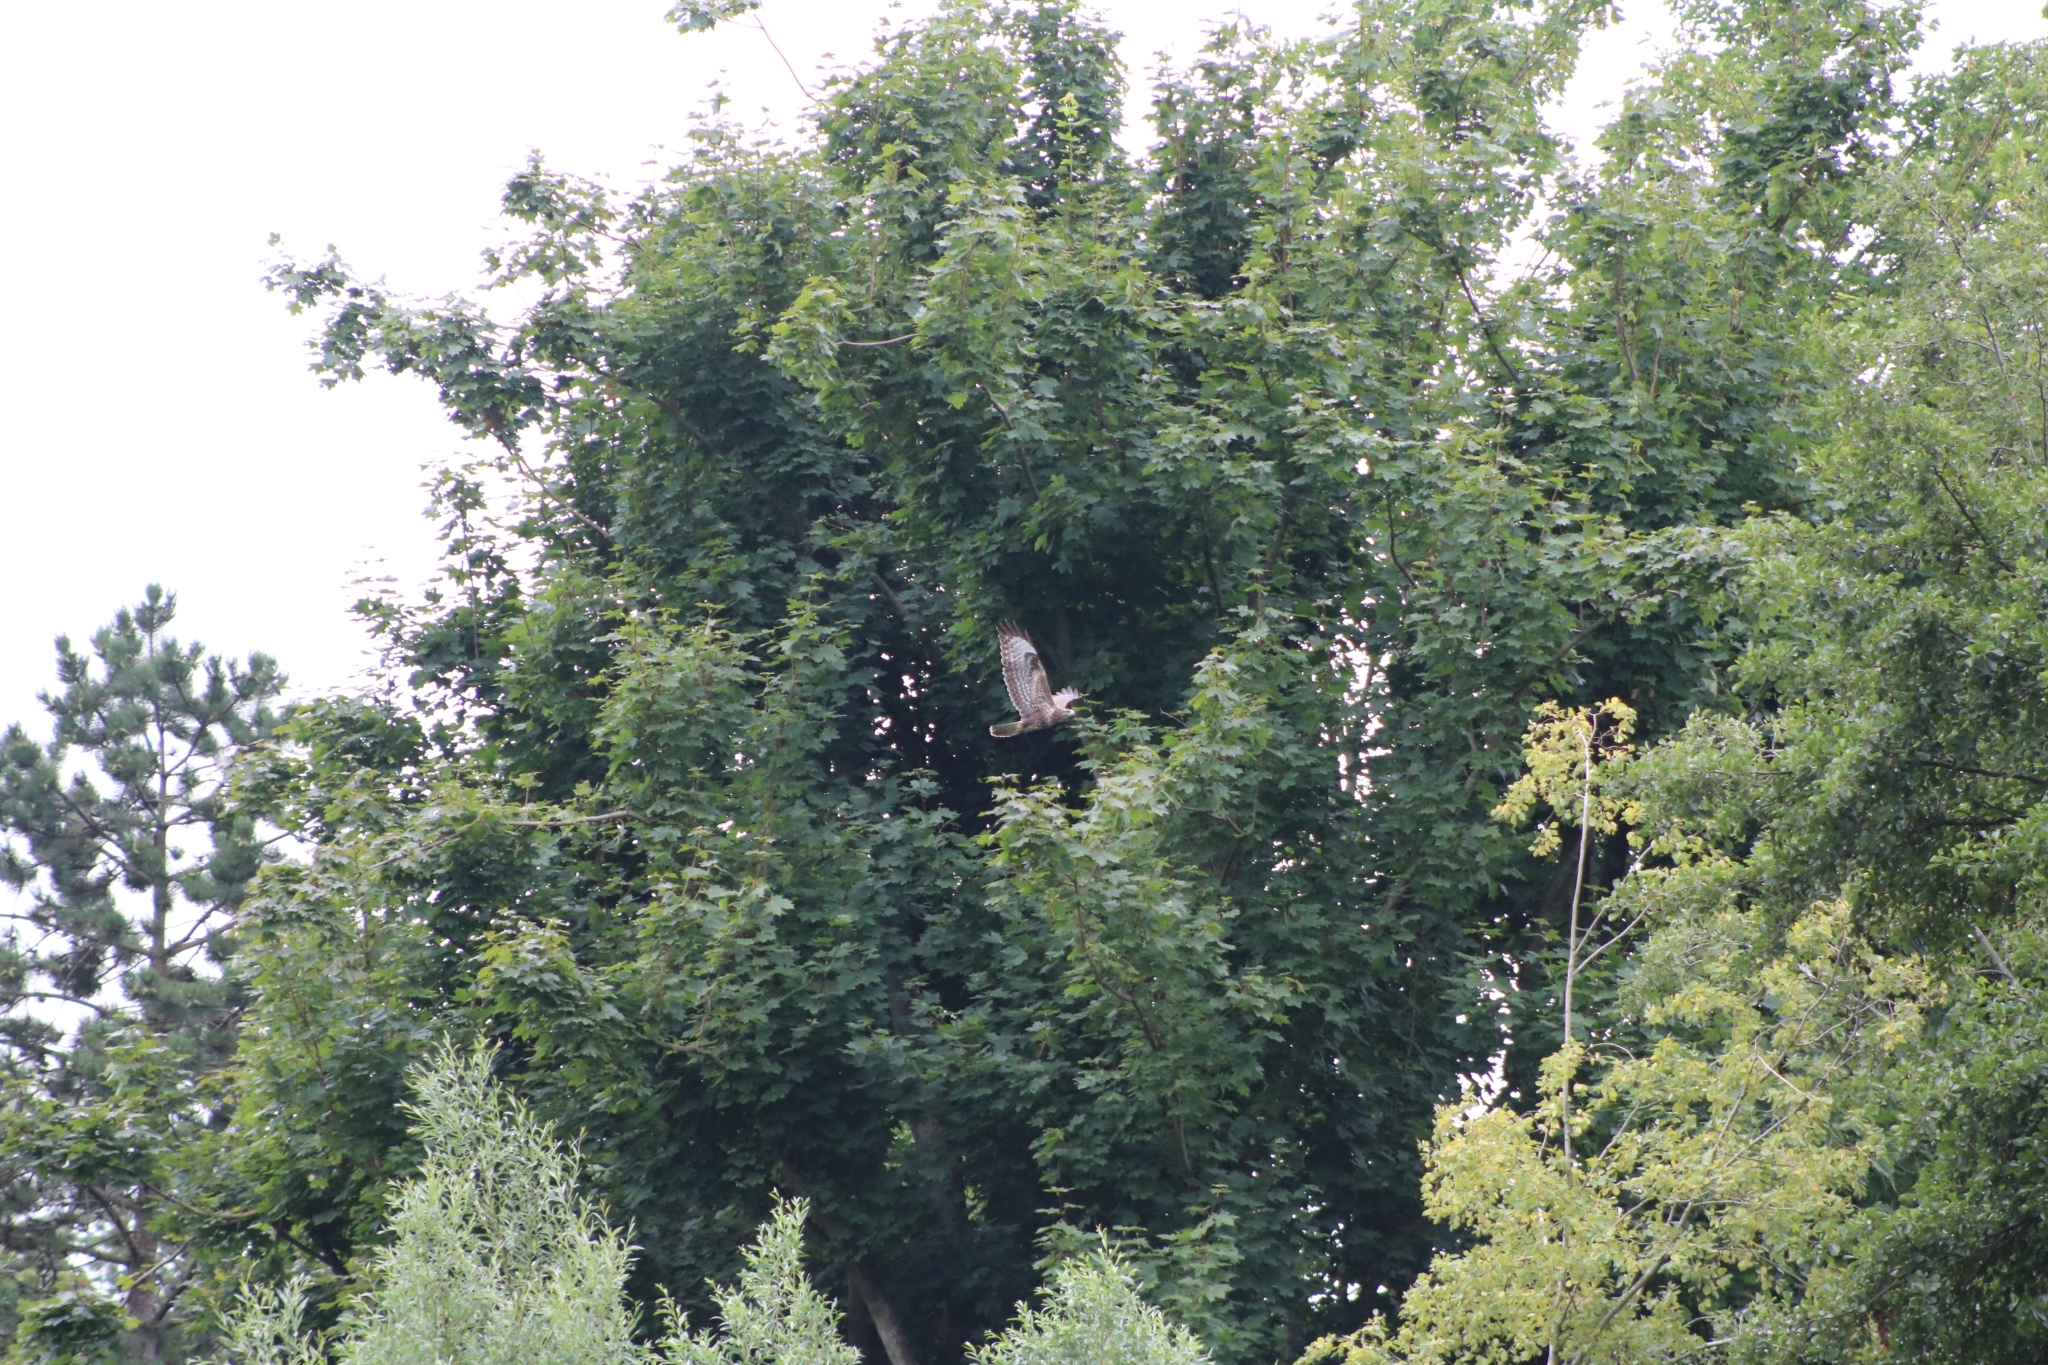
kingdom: Animalia
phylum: Chordata
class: Aves
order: Accipitriformes
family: Accipitridae
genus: Buteo
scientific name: Buteo buteo
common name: Common buzzard
